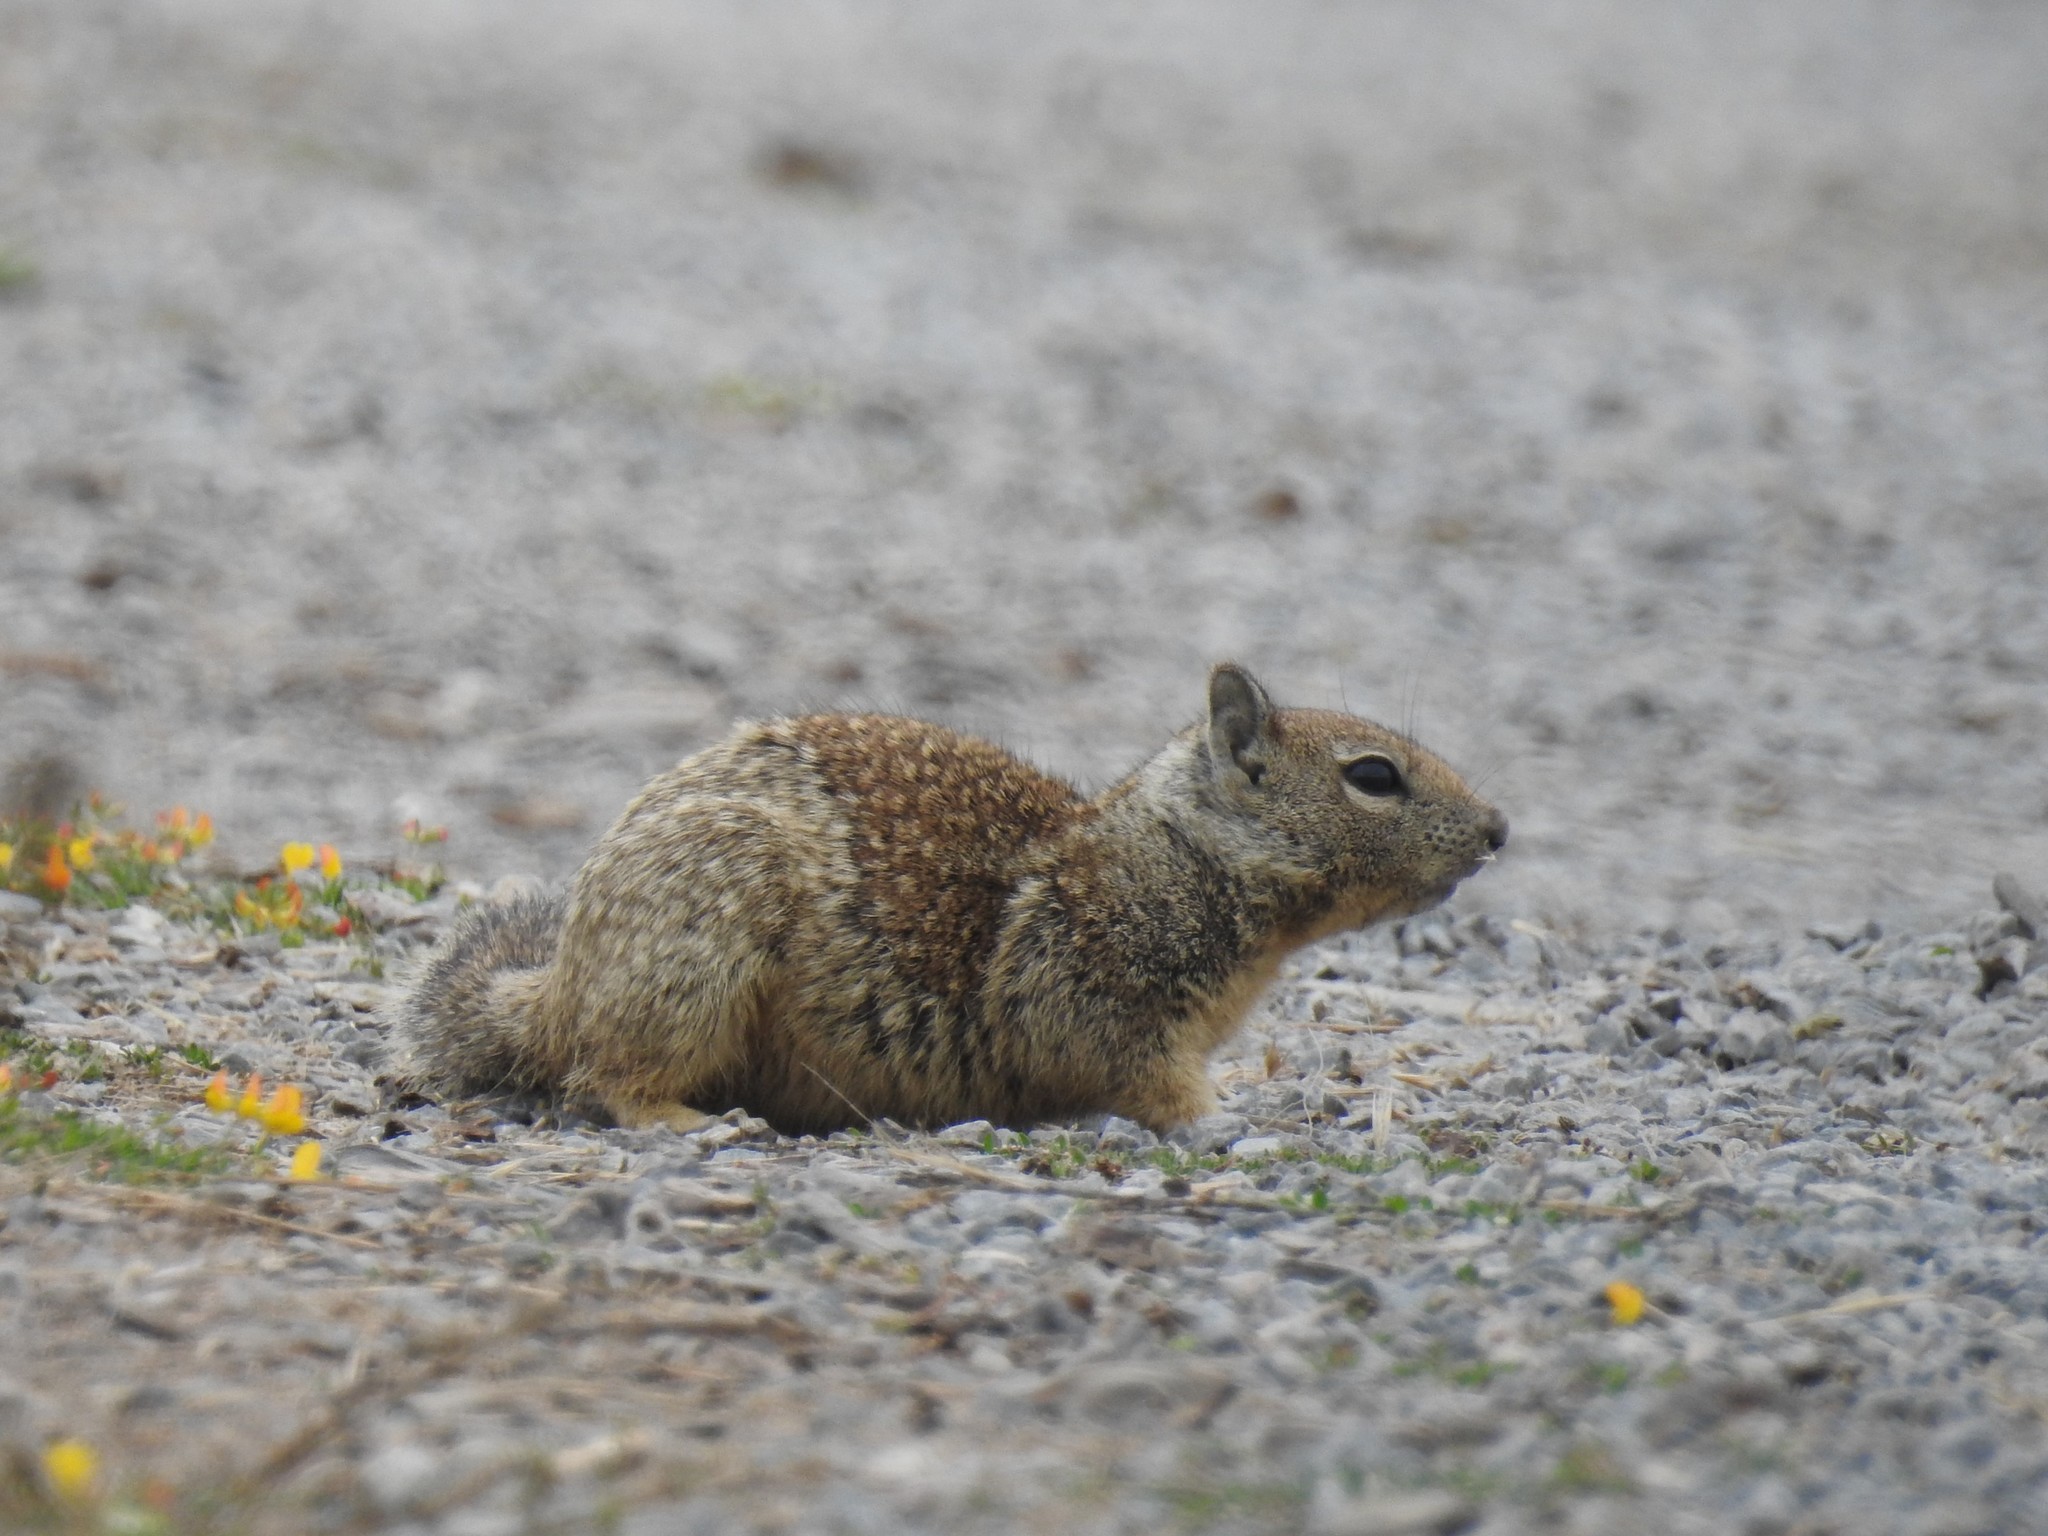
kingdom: Animalia
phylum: Chordata
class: Mammalia
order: Rodentia
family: Sciuridae
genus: Otospermophilus
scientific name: Otospermophilus beecheyi
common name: California ground squirrel
